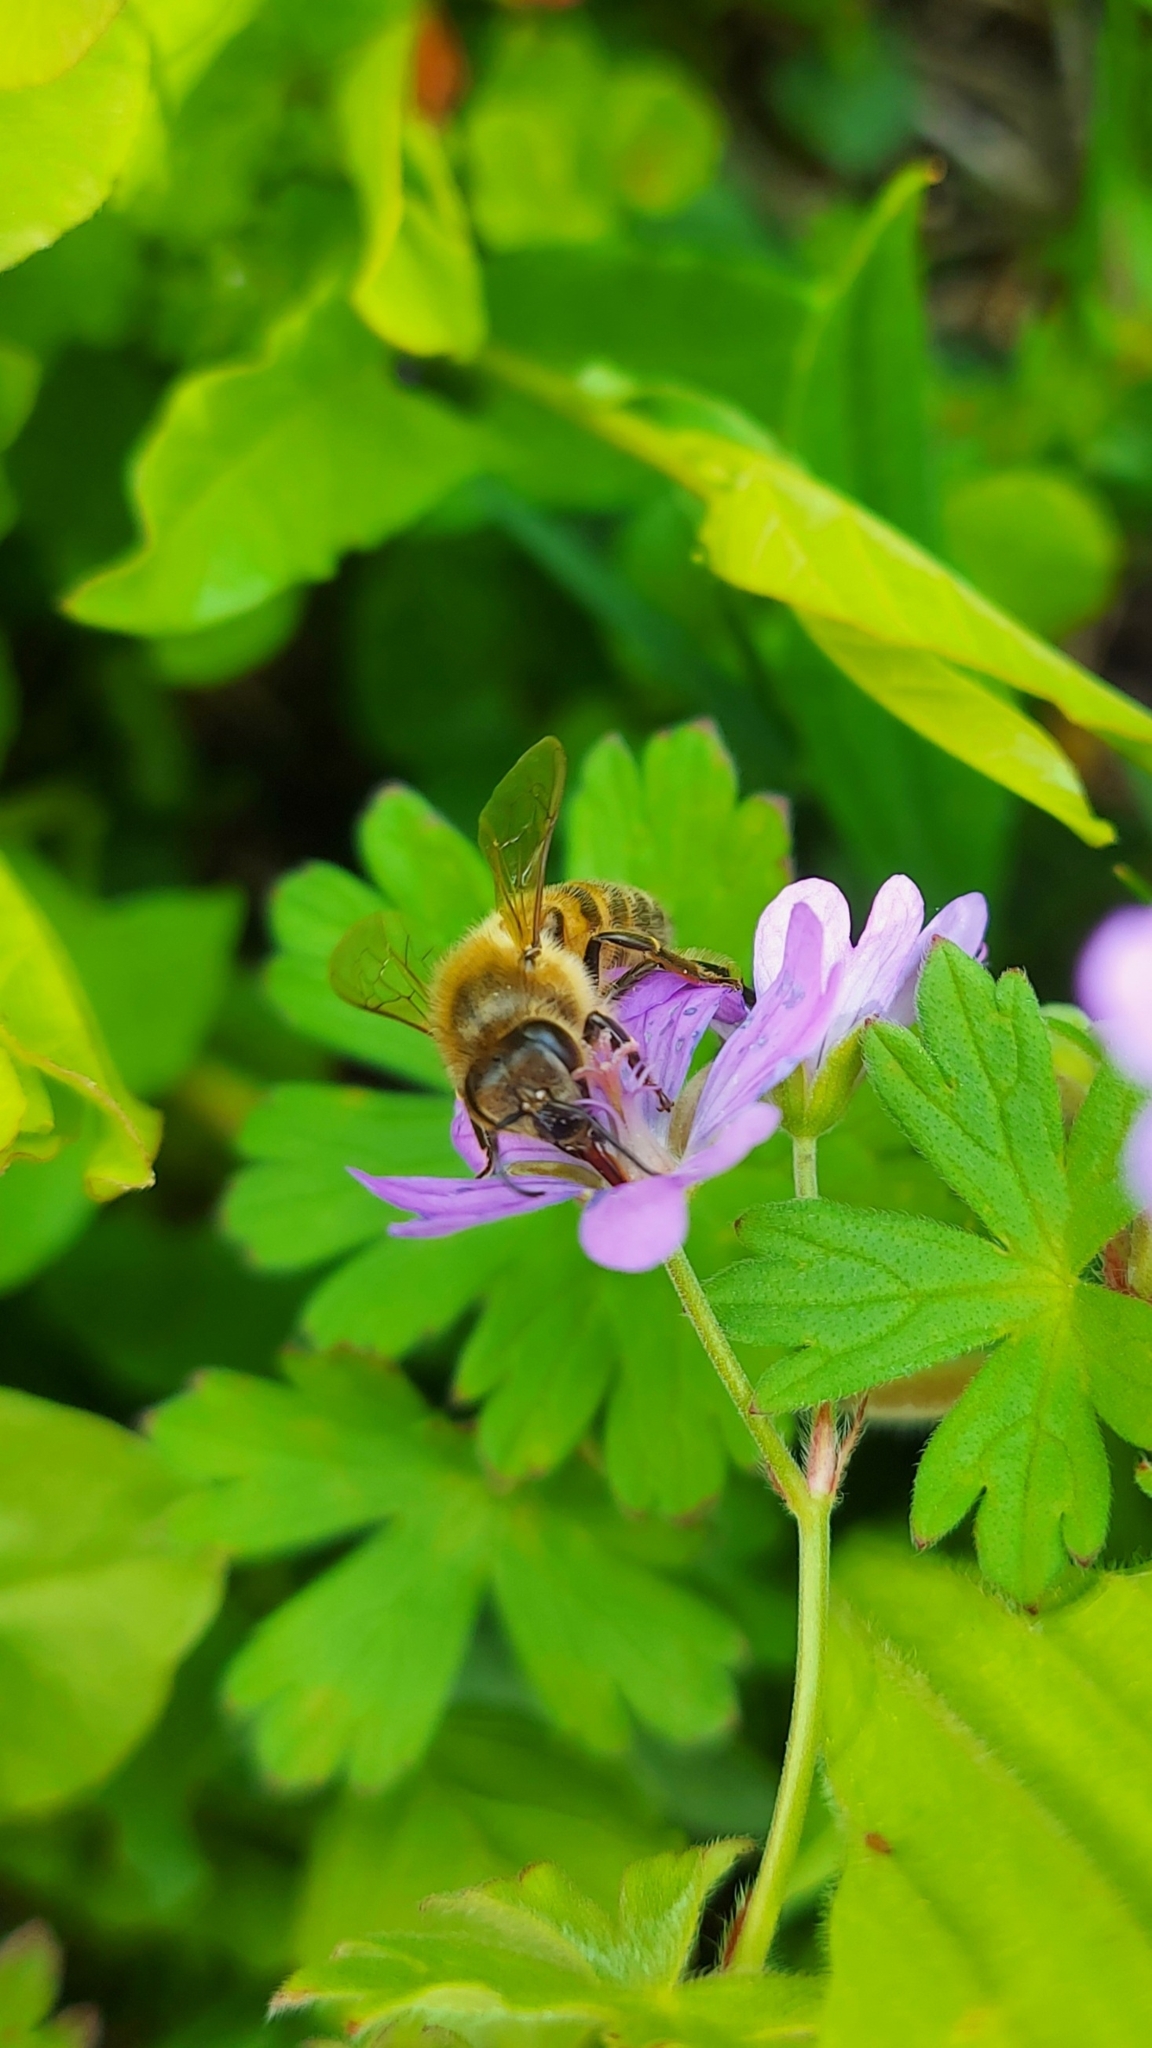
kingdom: Animalia
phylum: Arthropoda
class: Insecta
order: Hymenoptera
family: Apidae
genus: Apis
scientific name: Apis mellifera
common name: Honey bee
